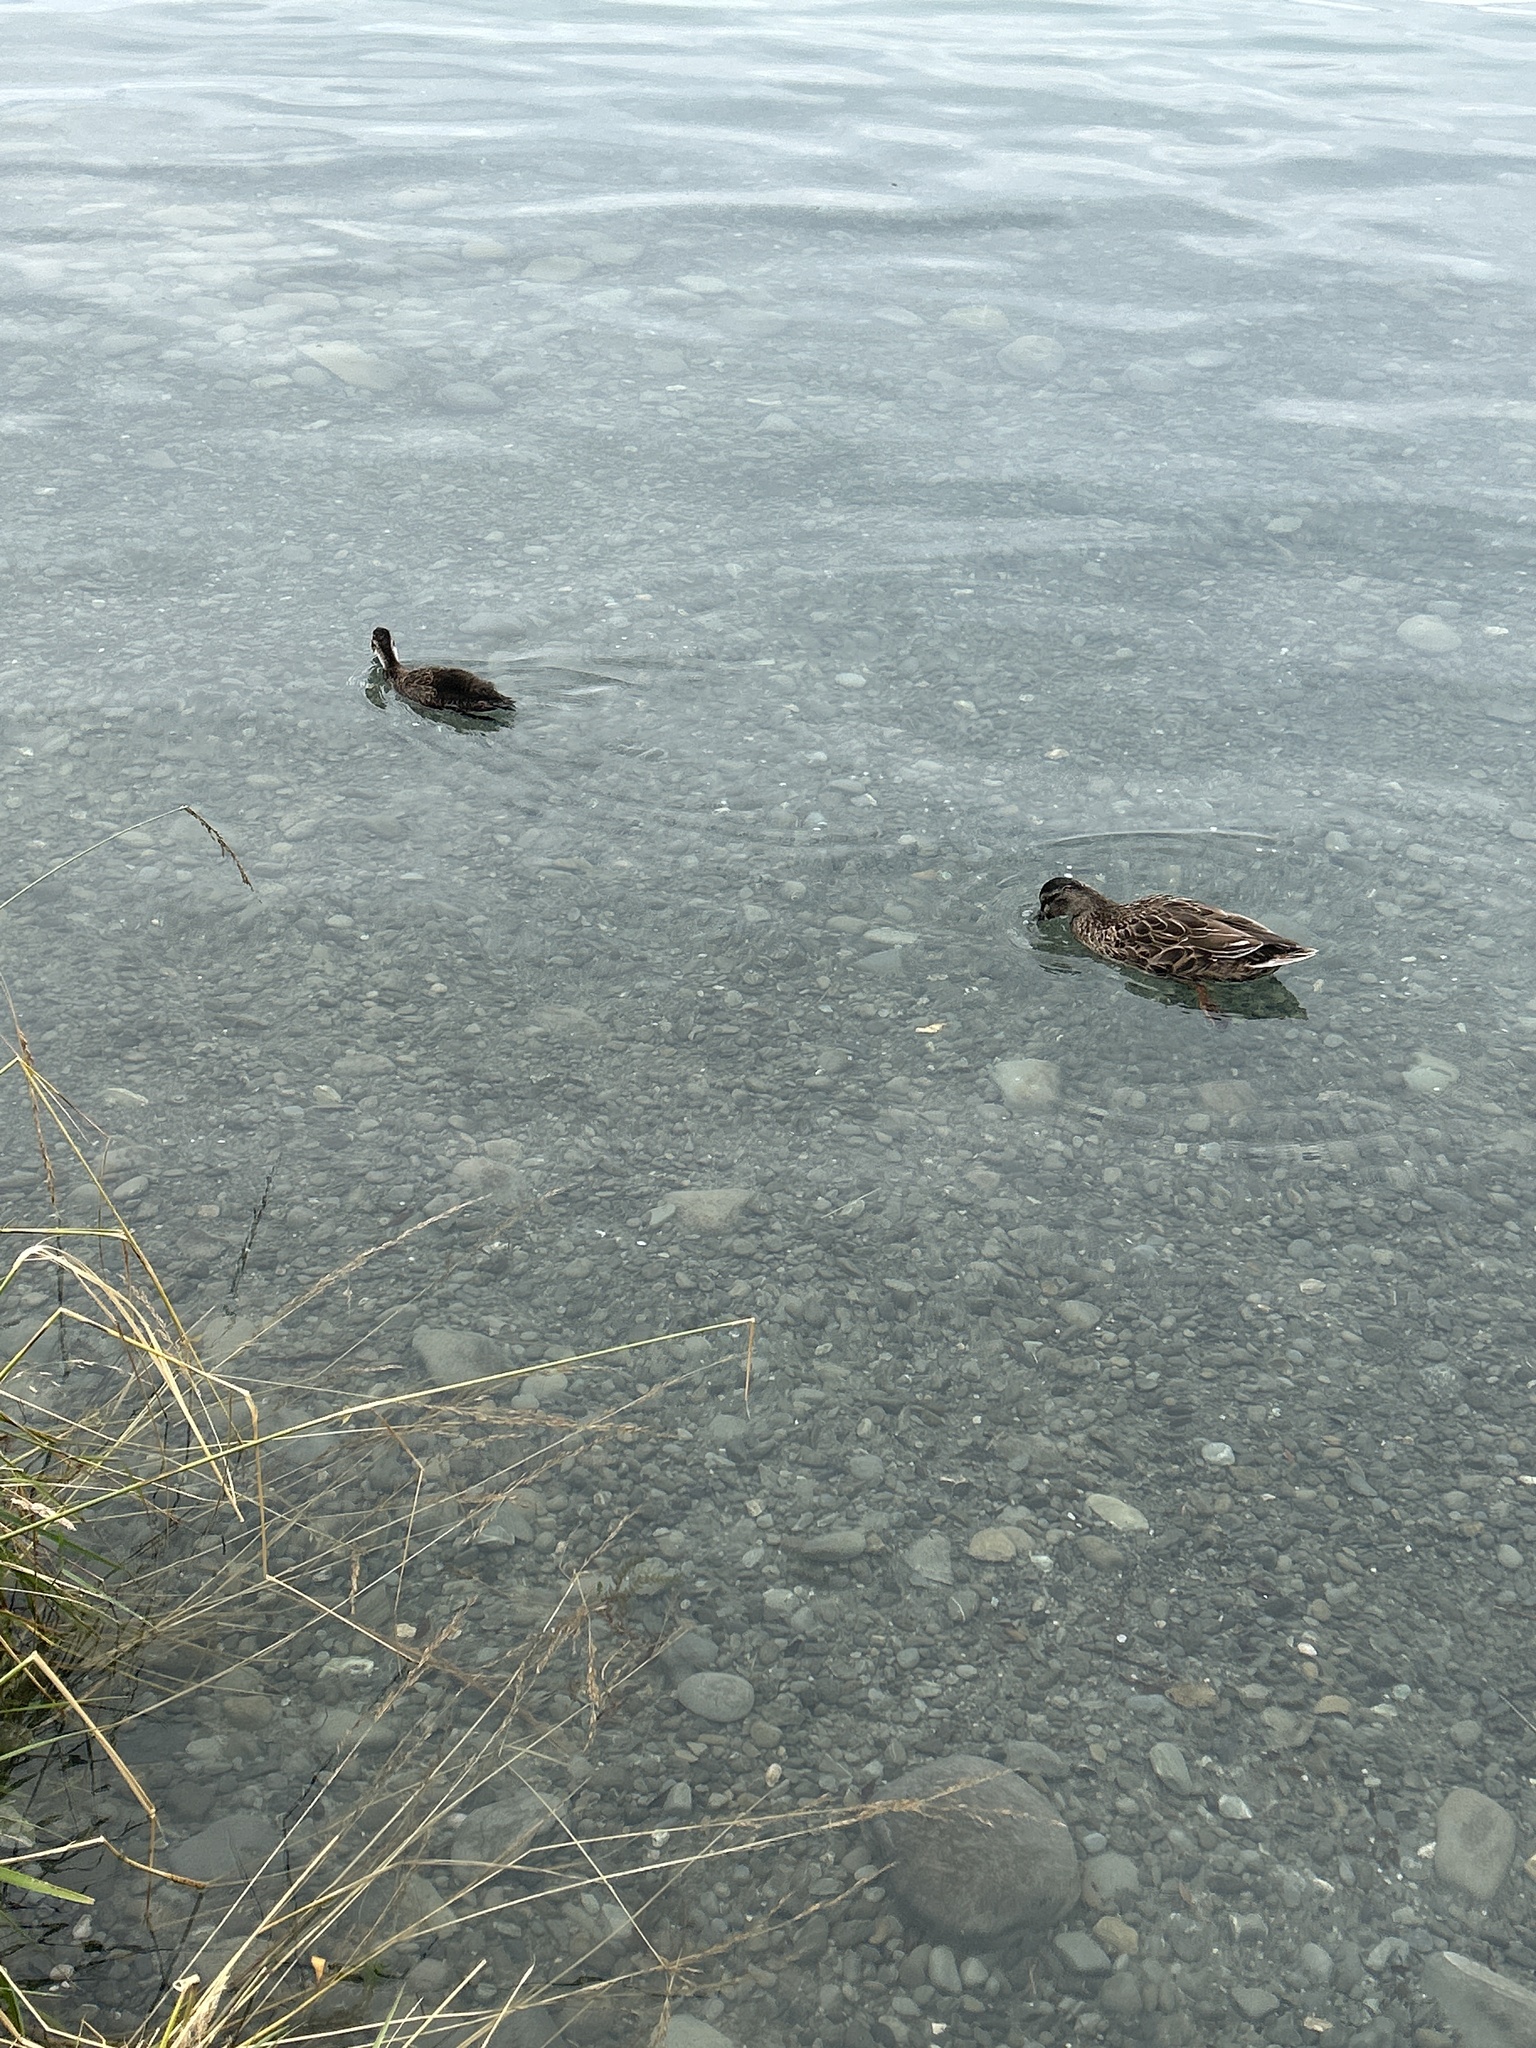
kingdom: Animalia
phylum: Chordata
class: Aves
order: Anseriformes
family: Anatidae
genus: Anas
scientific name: Anas
